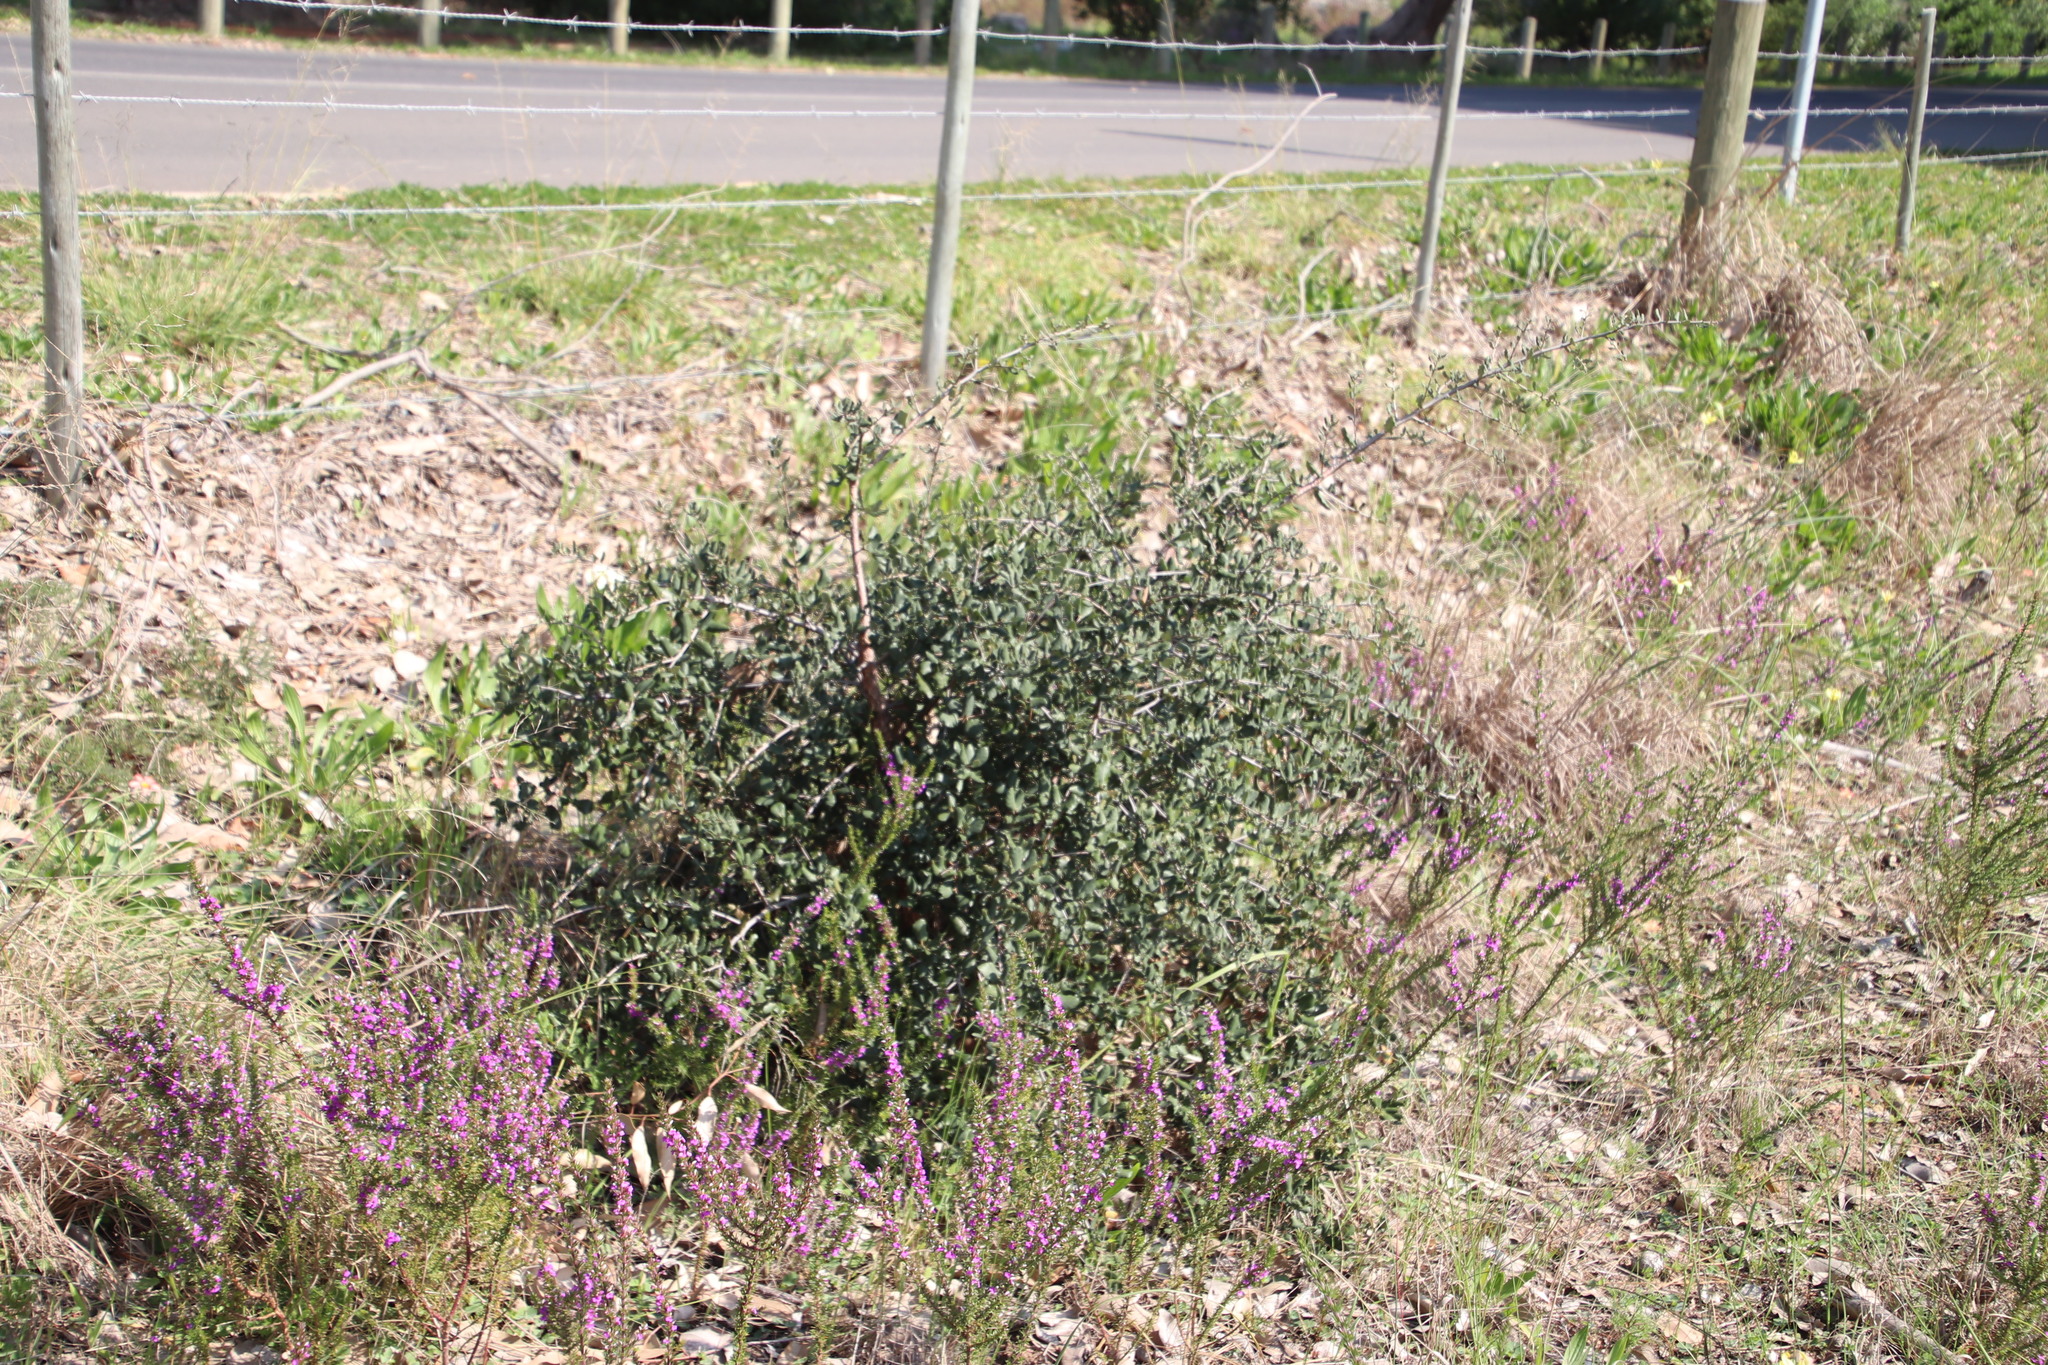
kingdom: Plantae
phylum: Tracheophyta
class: Magnoliopsida
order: Fagales
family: Fagaceae
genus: Quercus
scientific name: Quercus suber
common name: Cork oak
